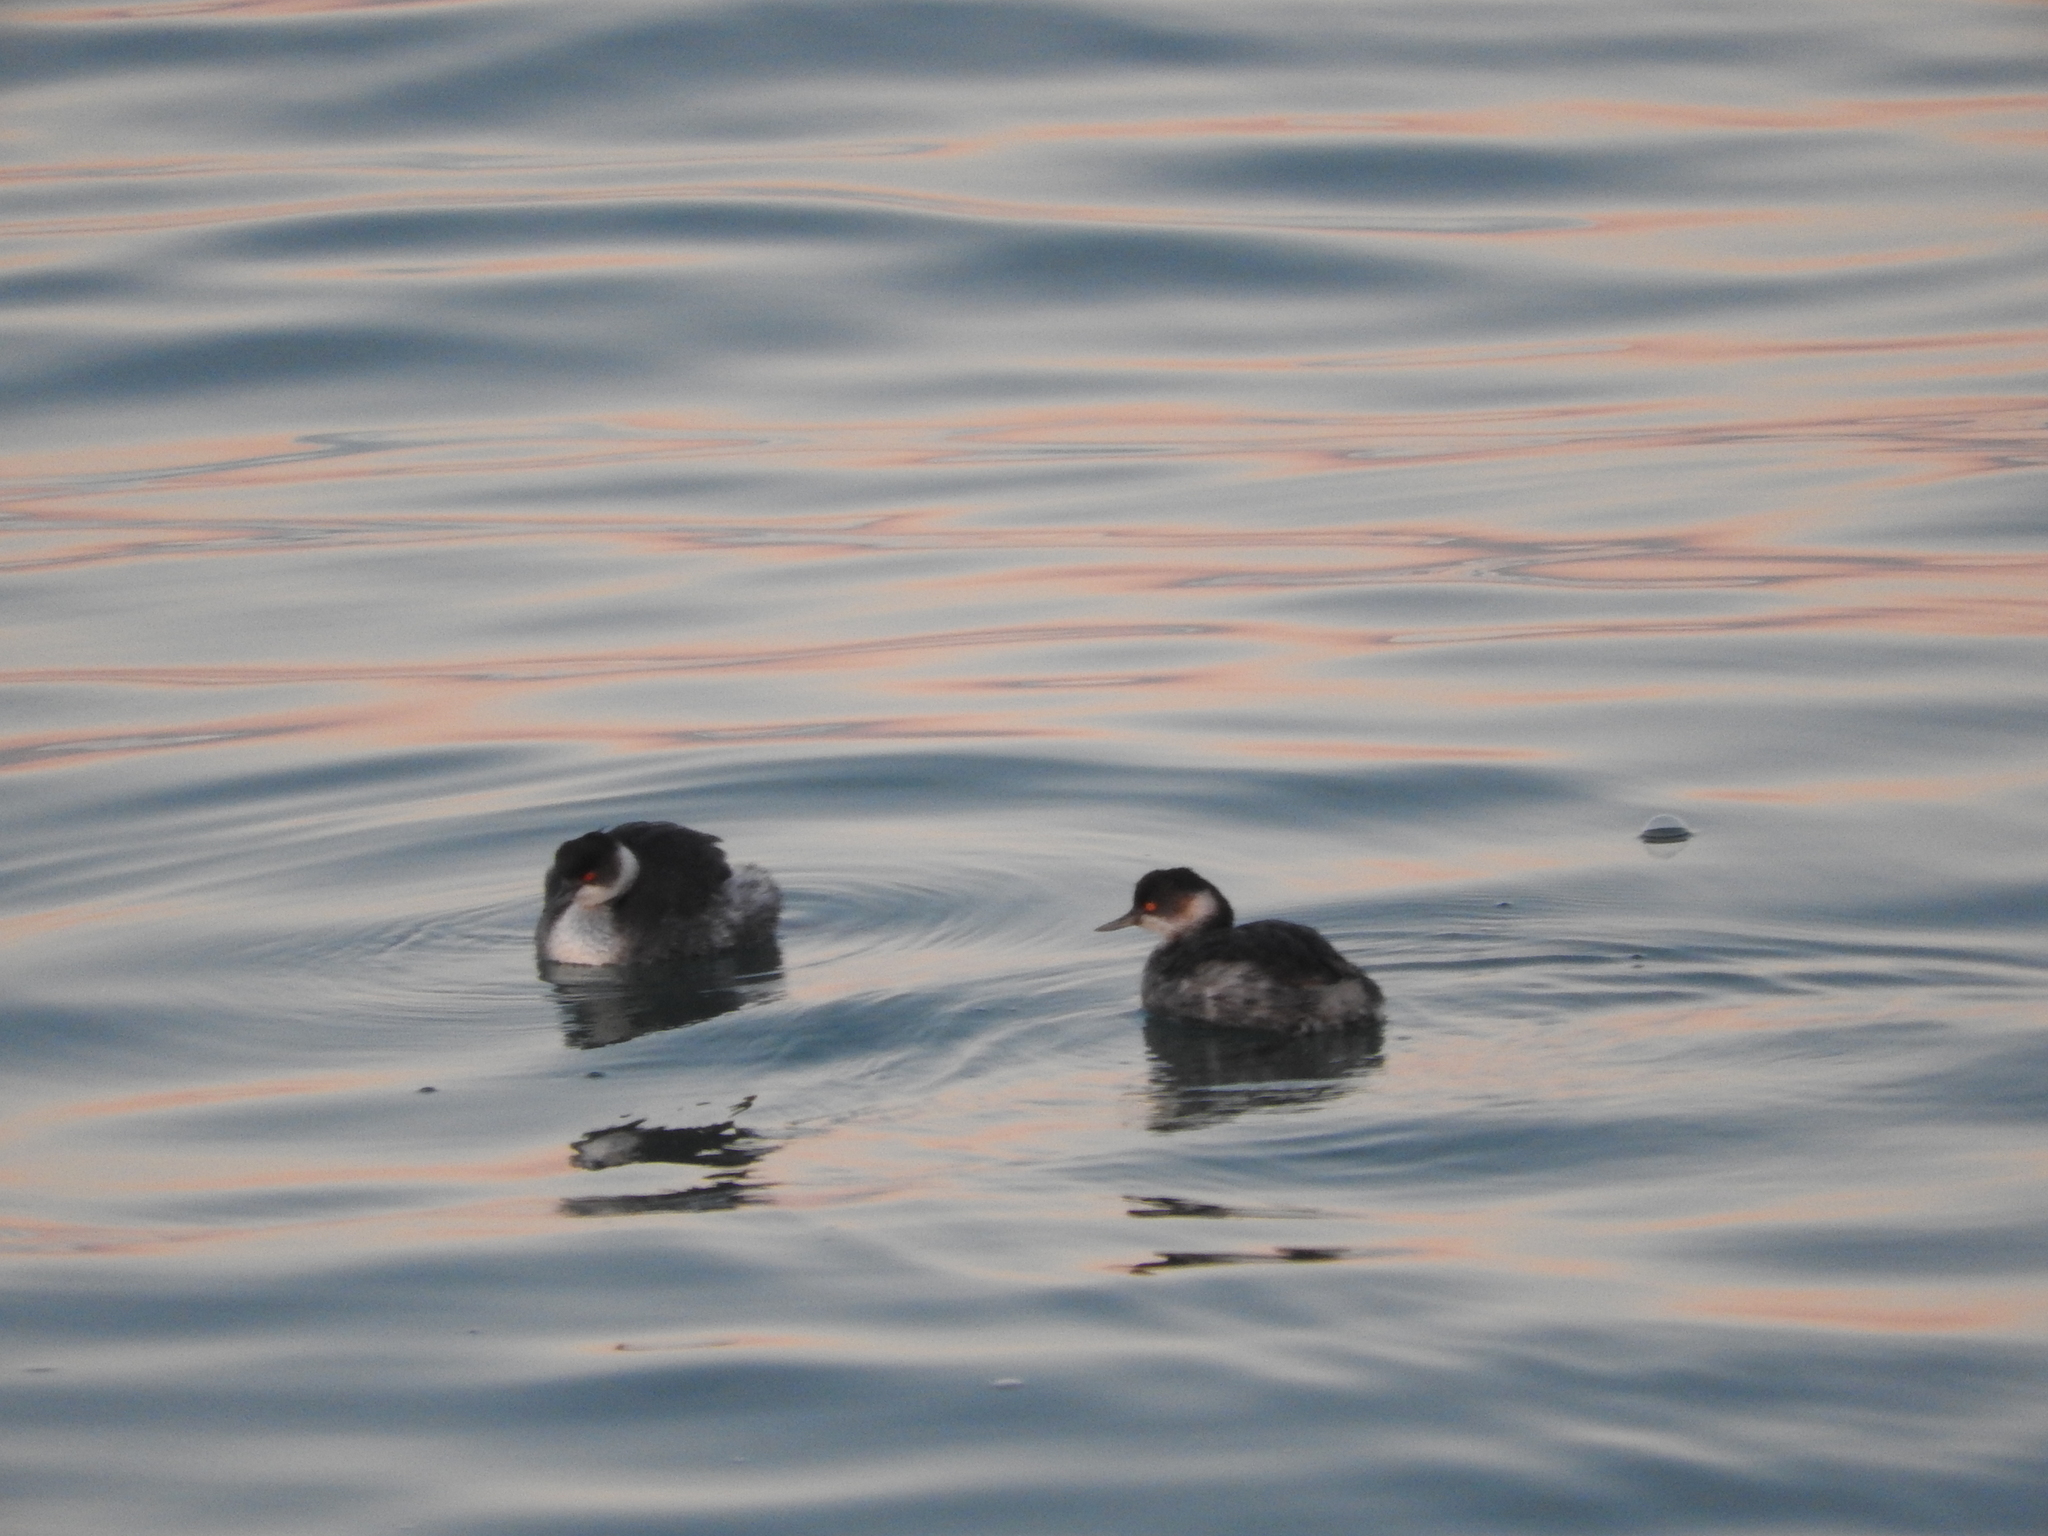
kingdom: Animalia
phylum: Chordata
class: Aves
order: Podicipediformes
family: Podicipedidae
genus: Podiceps
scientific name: Podiceps nigricollis
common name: Black-necked grebe
